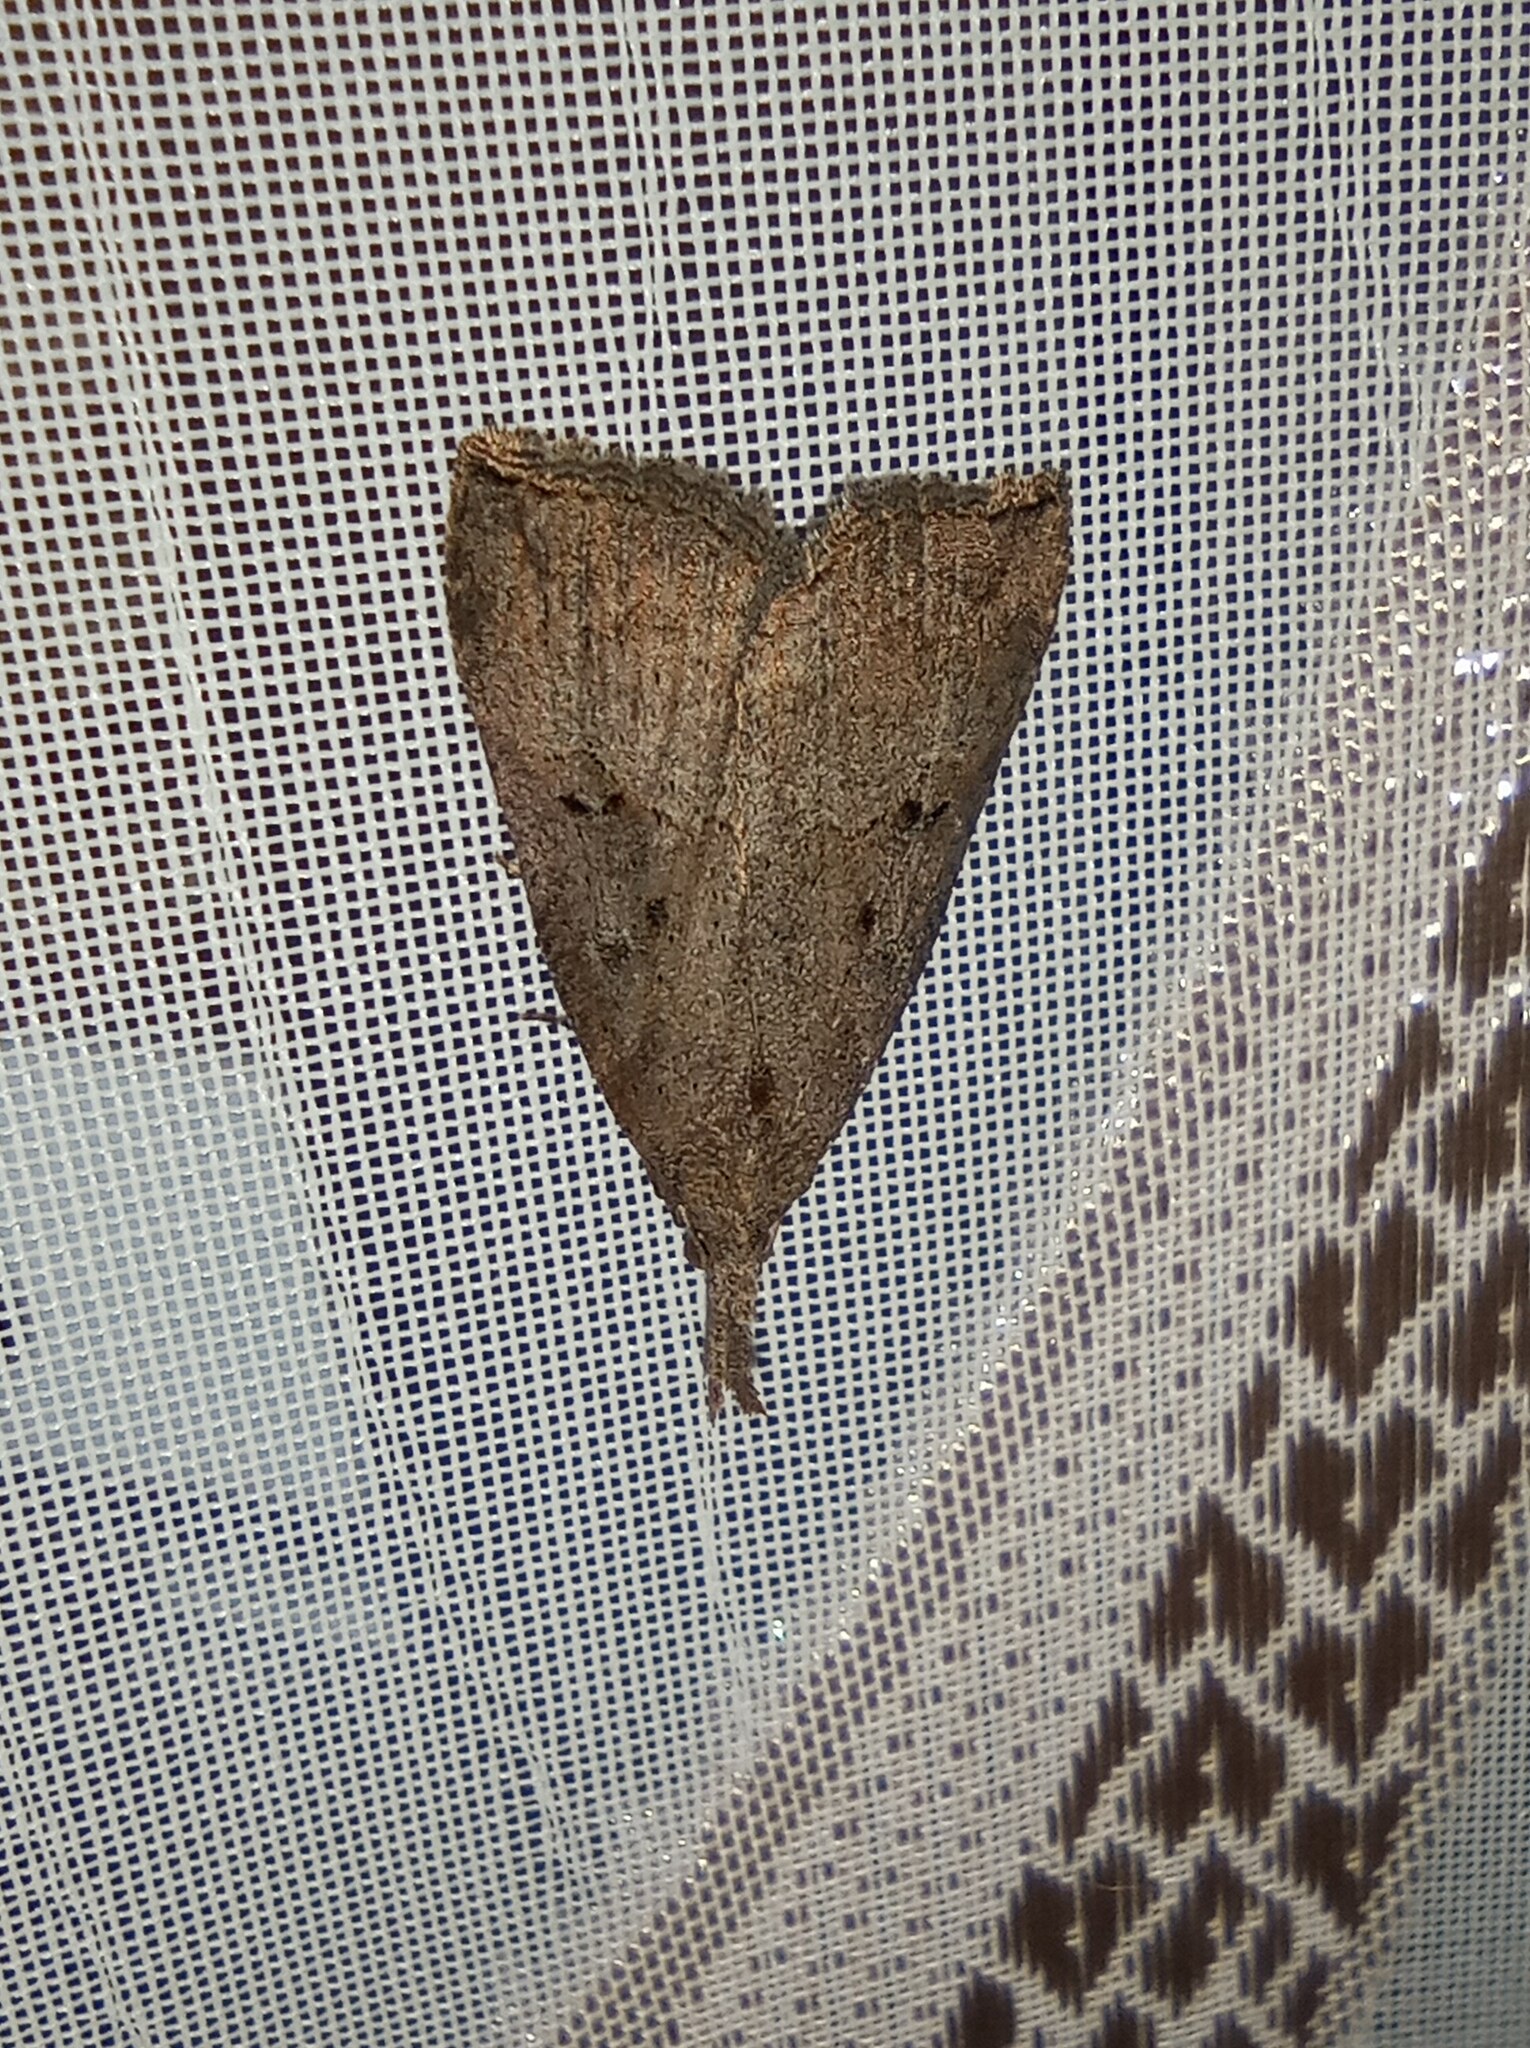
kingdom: Animalia
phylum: Arthropoda
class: Insecta
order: Lepidoptera
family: Erebidae
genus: Hypena
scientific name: Hypena rostralis
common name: Buttoned snout
